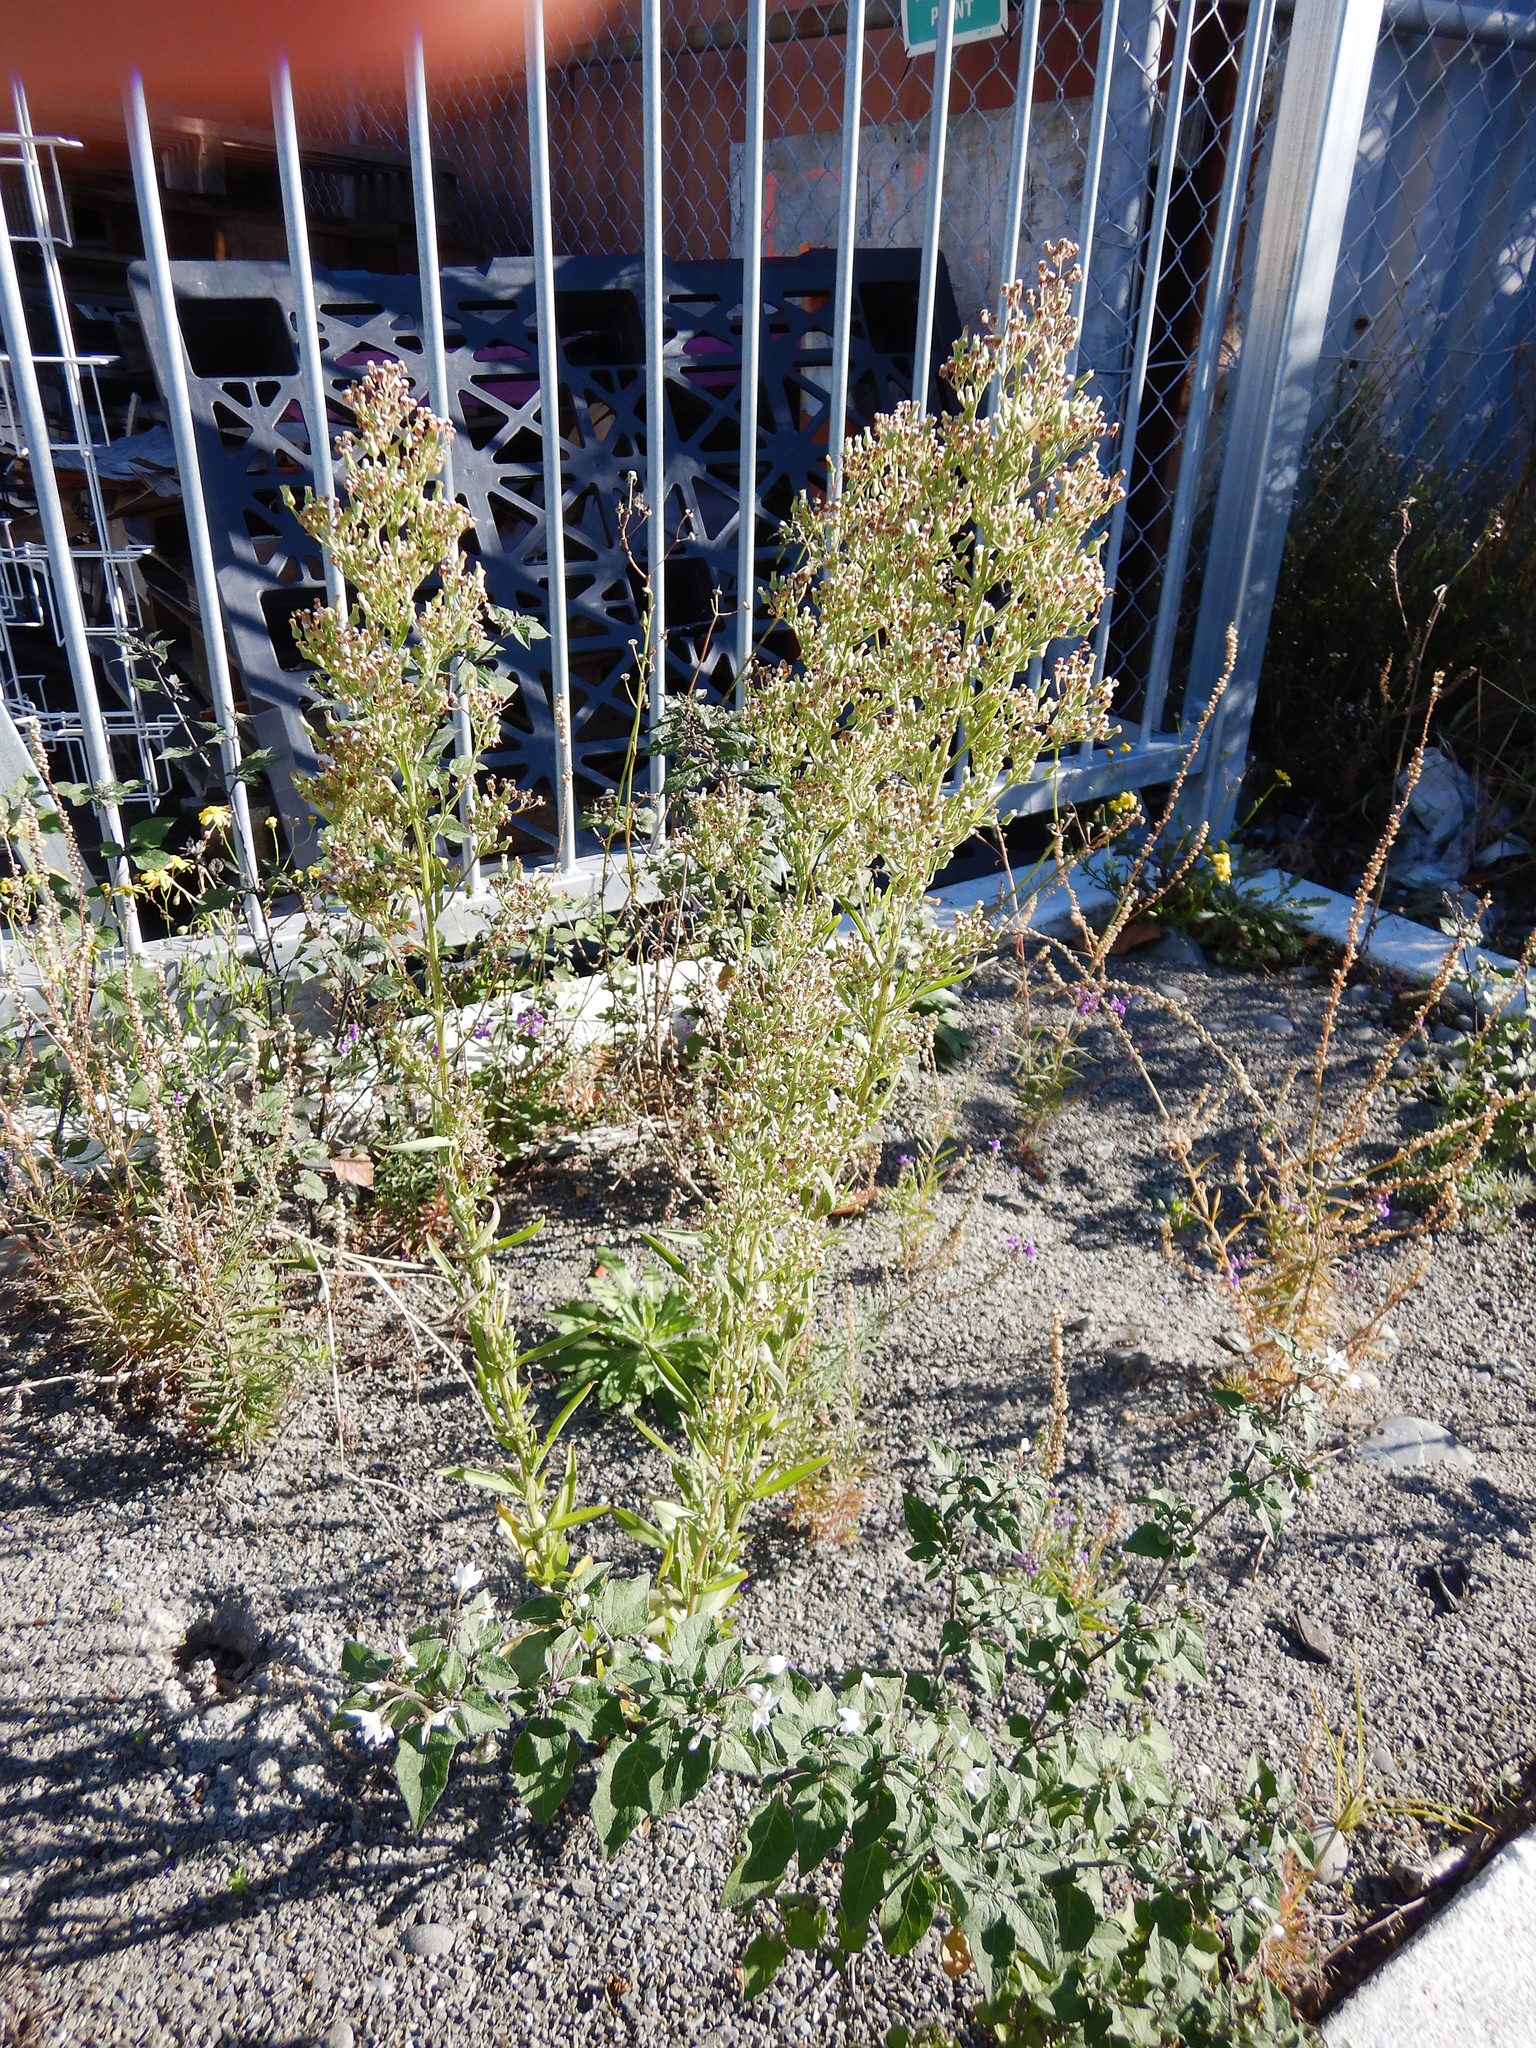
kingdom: Plantae
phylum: Tracheophyta
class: Magnoliopsida
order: Asterales
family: Asteraceae
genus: Erigeron
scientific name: Erigeron sumatrensis
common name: Daisy
